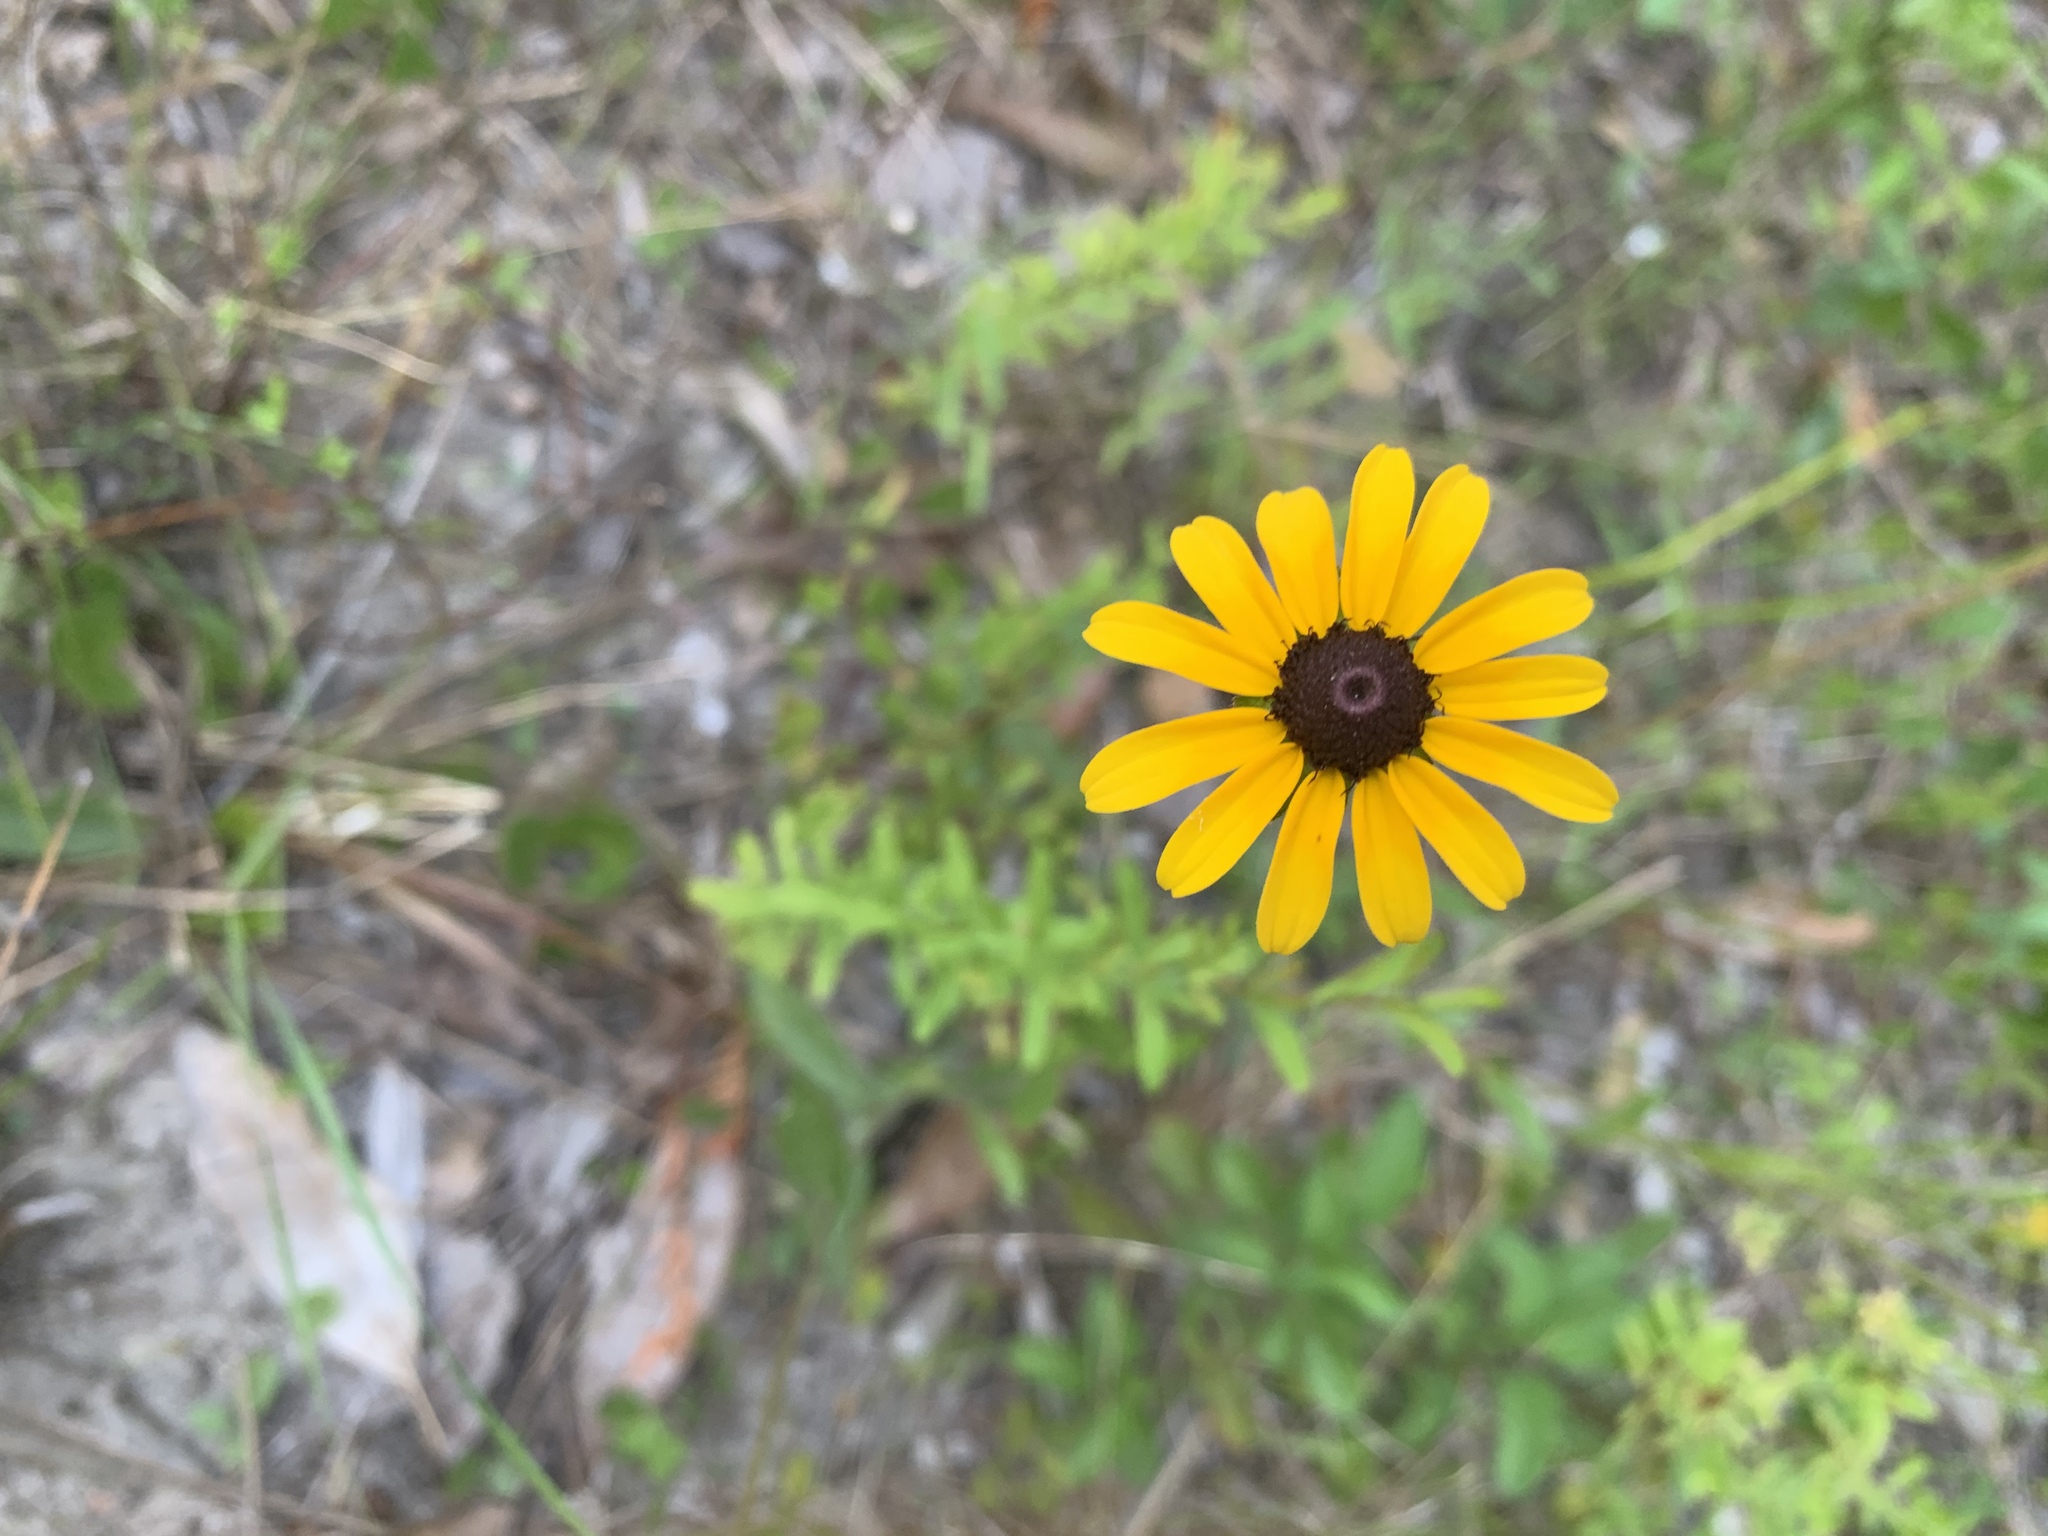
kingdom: Plantae
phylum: Tracheophyta
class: Magnoliopsida
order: Asterales
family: Asteraceae
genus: Rudbeckia
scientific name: Rudbeckia hirta
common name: Black-eyed-susan
